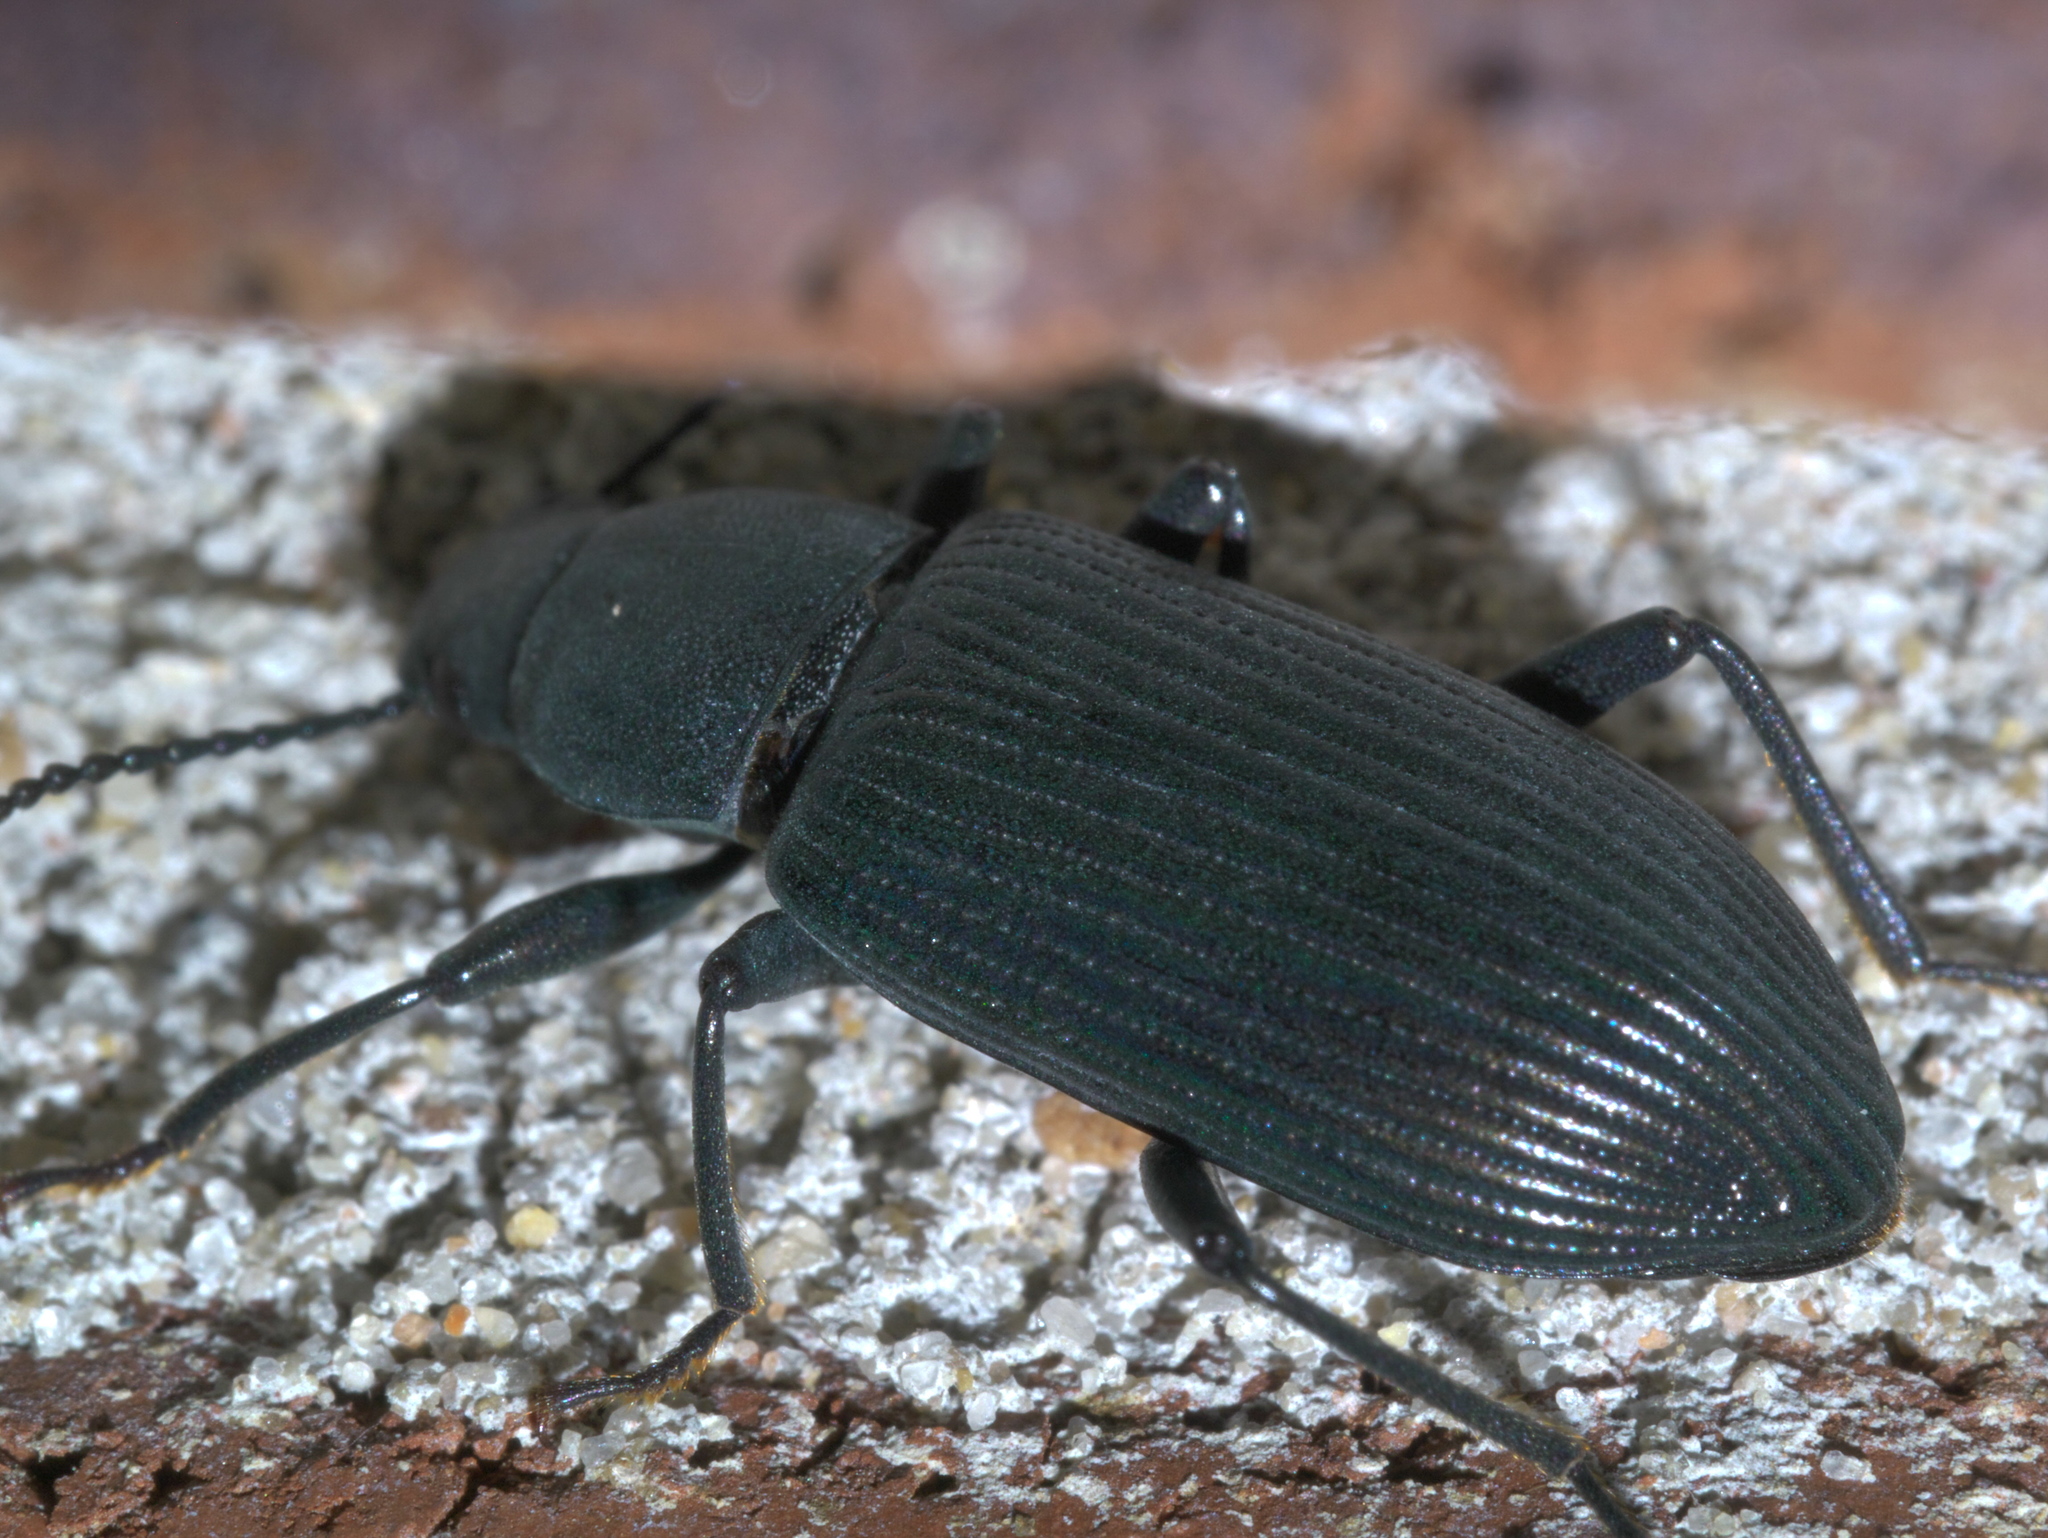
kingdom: Animalia
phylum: Arthropoda
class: Insecta
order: Coleoptera
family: Tenebrionidae
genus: Xylopinus
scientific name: Xylopinus saperdoides
